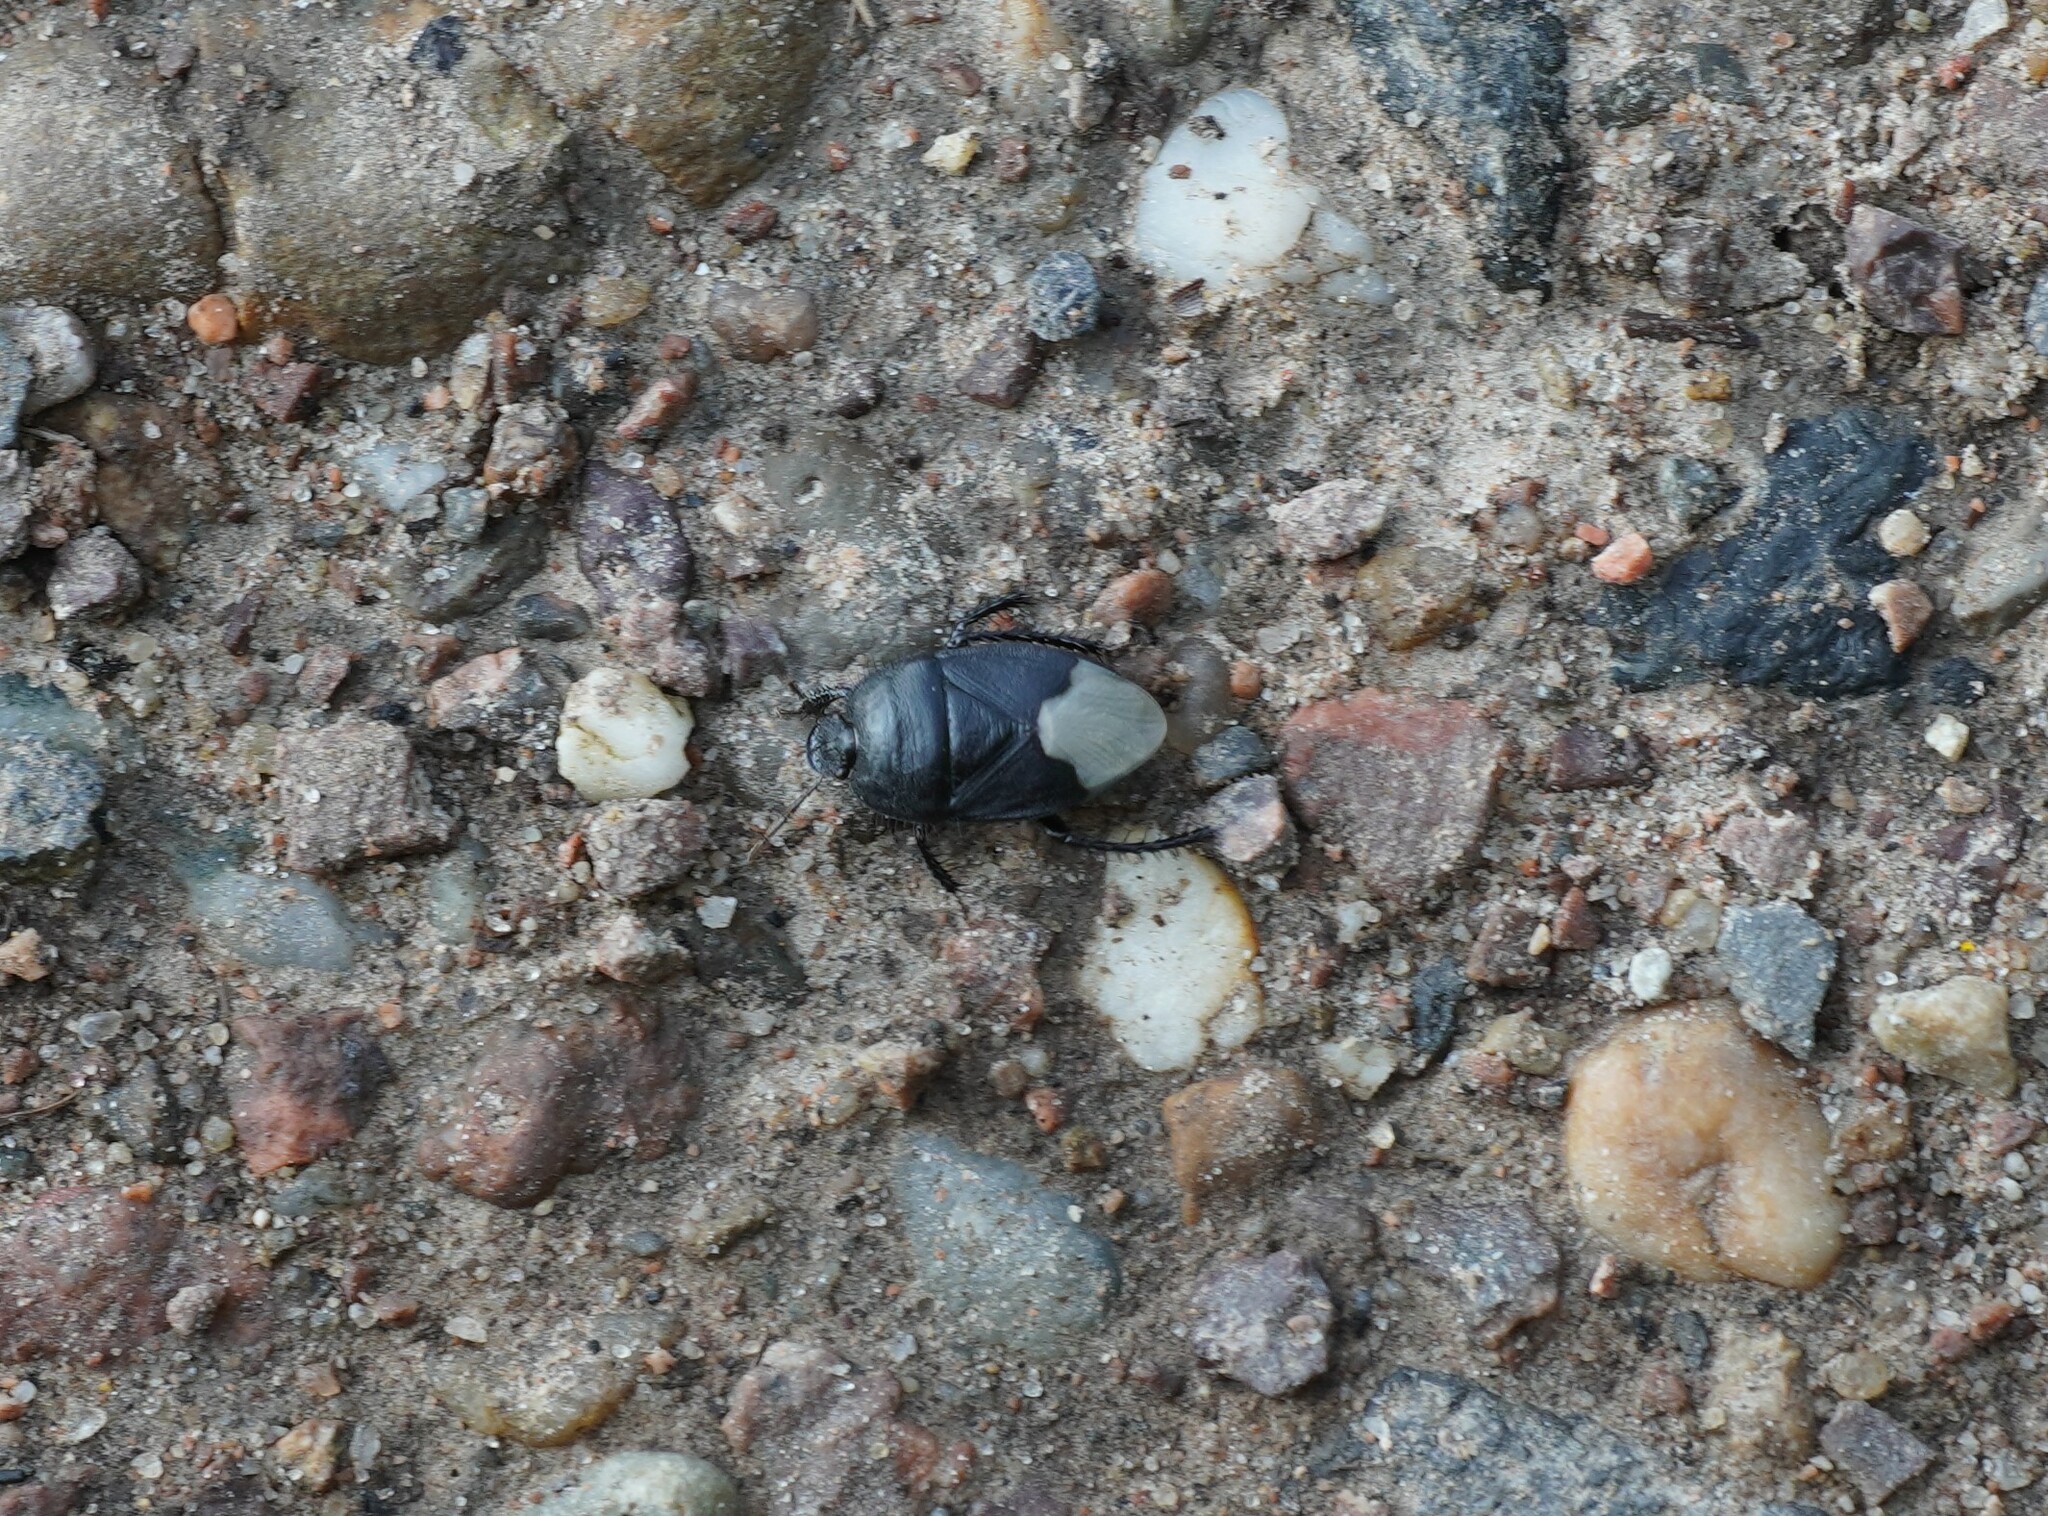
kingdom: Animalia
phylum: Arthropoda
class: Insecta
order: Hemiptera
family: Cydnidae
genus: Cydnus
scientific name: Cydnus aterrimus
